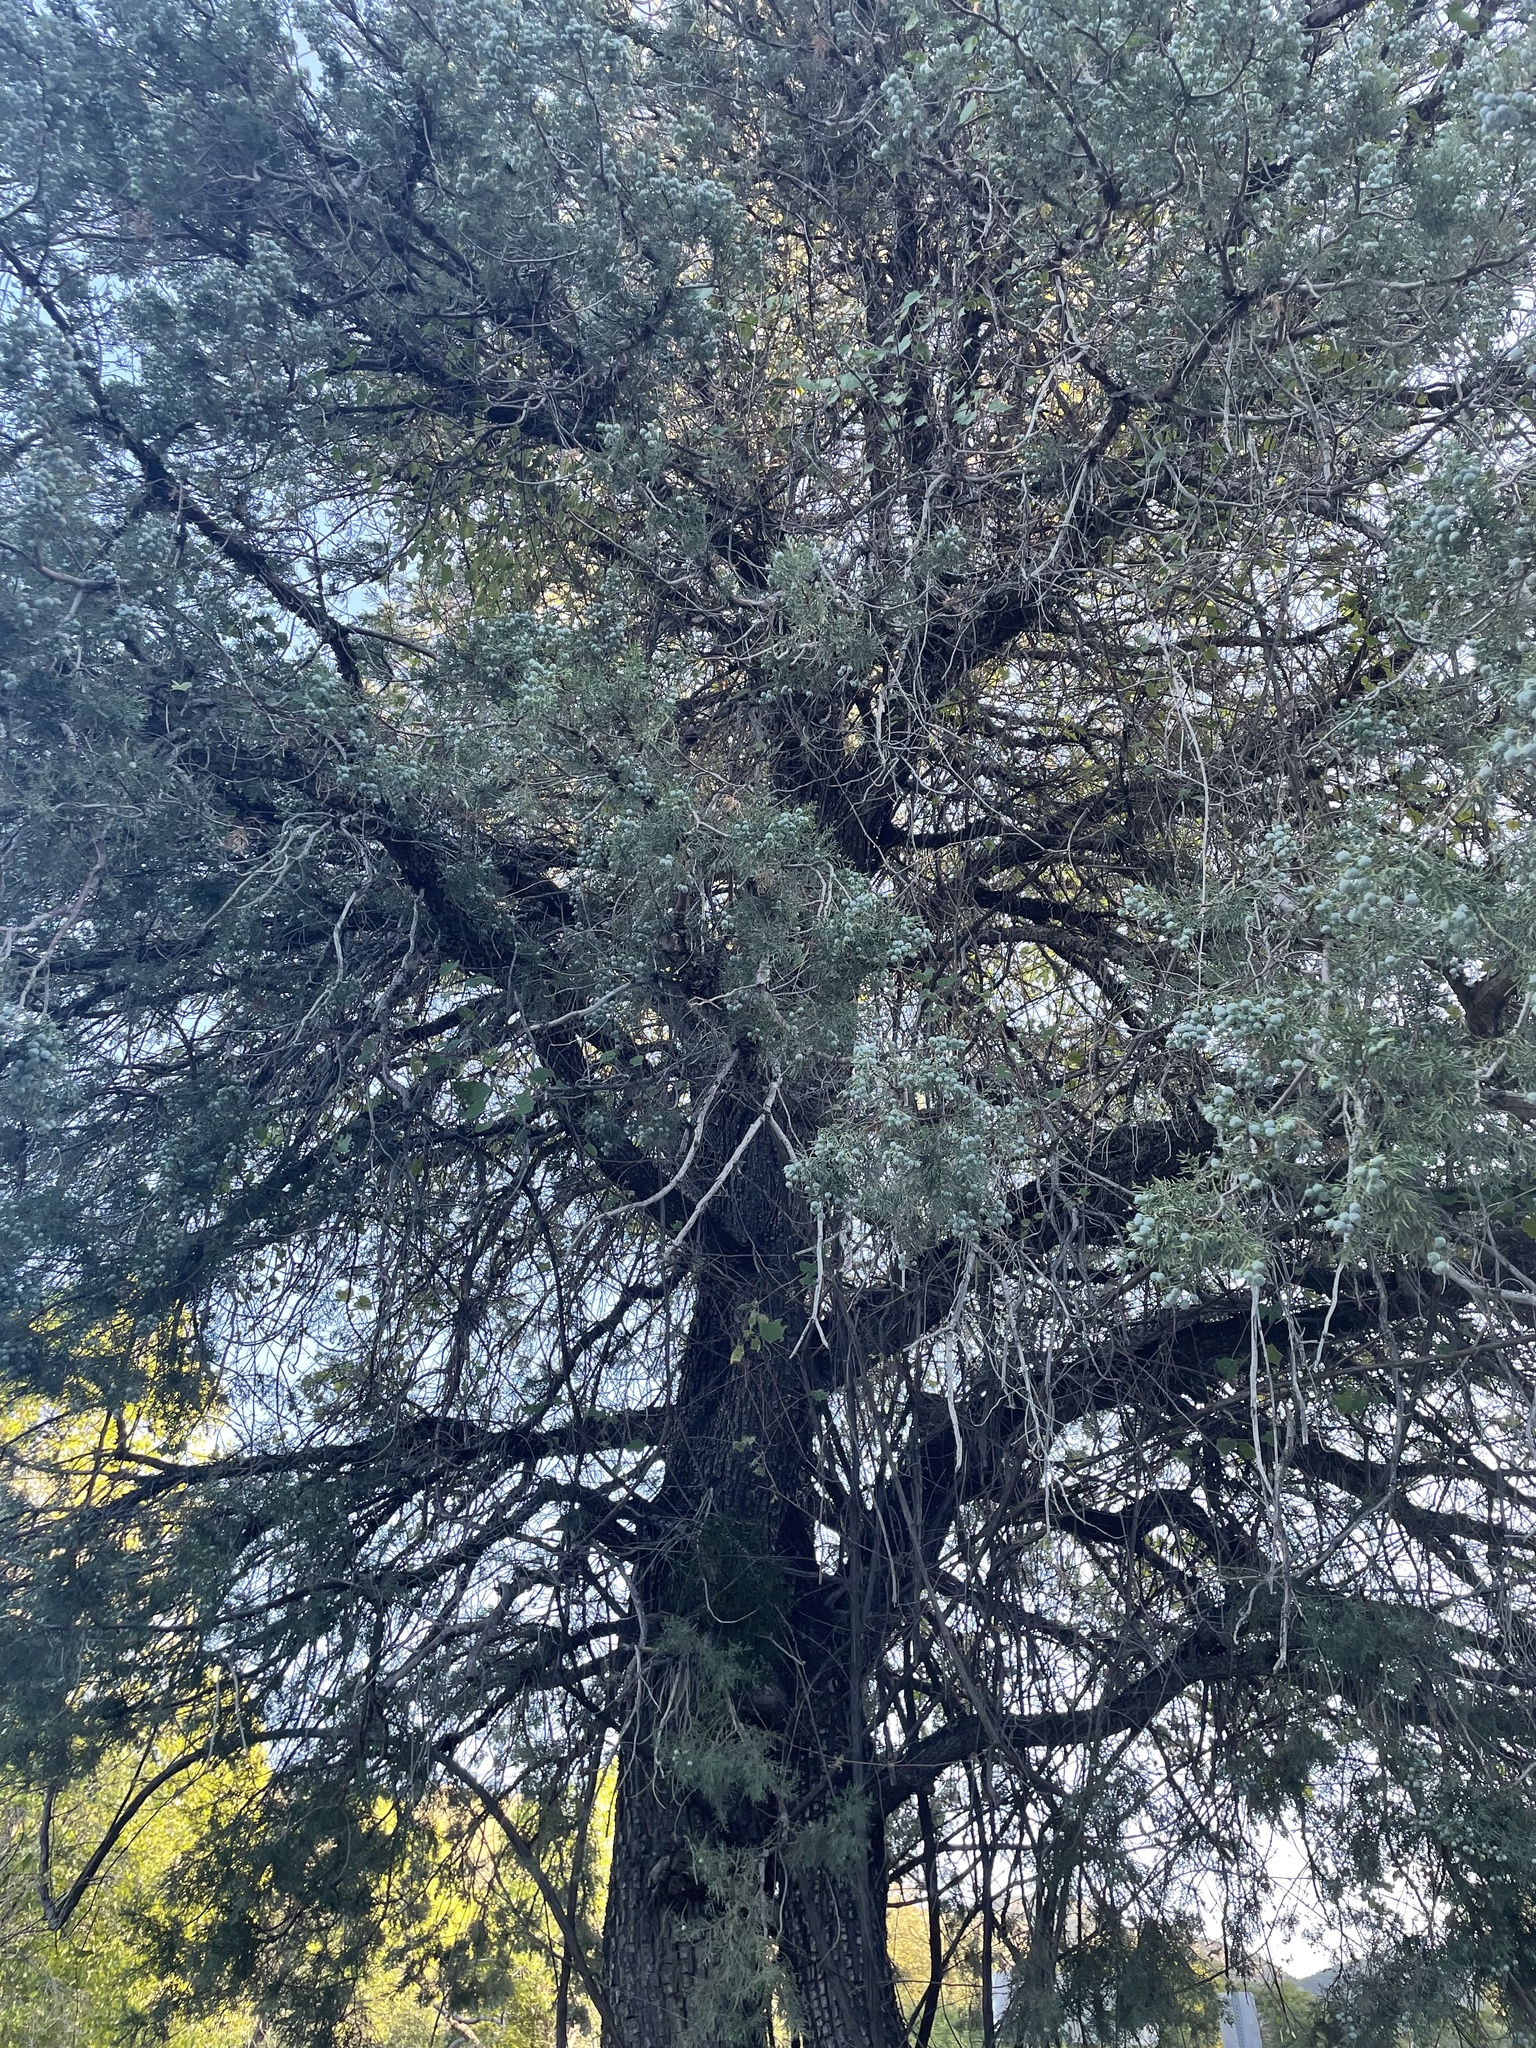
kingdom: Plantae
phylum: Tracheophyta
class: Pinopsida
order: Pinales
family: Cupressaceae
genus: Juniperus
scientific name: Juniperus deppeana
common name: Alligator juniper
